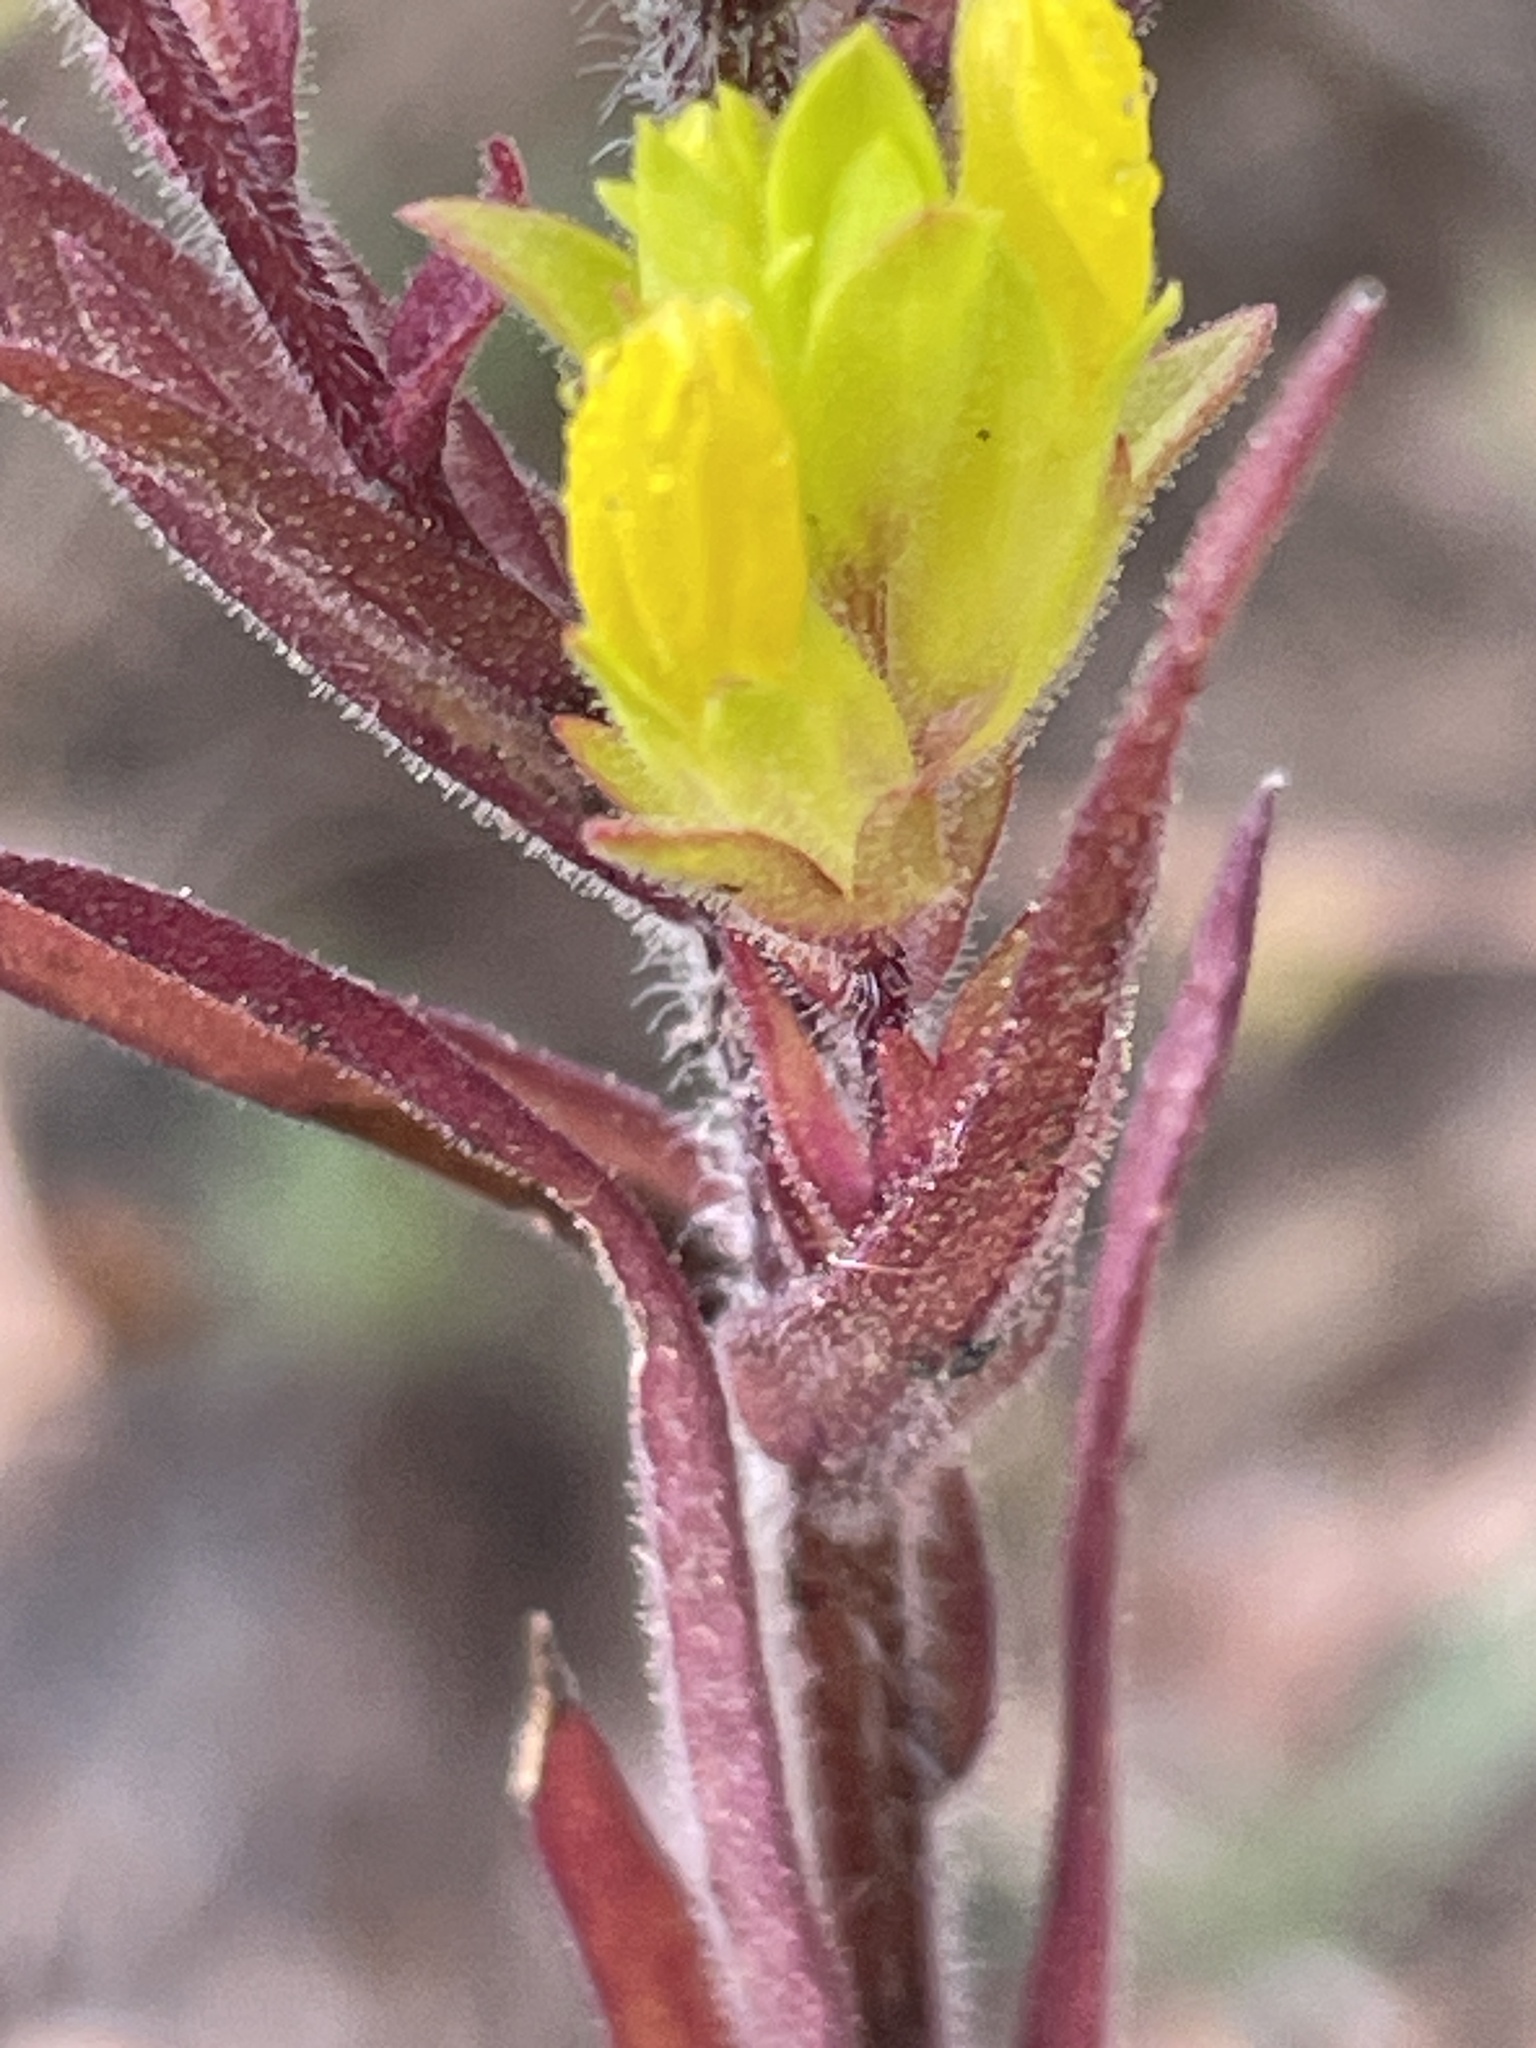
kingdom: Plantae
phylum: Tracheophyta
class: Magnoliopsida
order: Lamiales
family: Orobanchaceae
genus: Orthocarpus
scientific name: Orthocarpus luteus
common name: Golden-tongue owl's-clover
